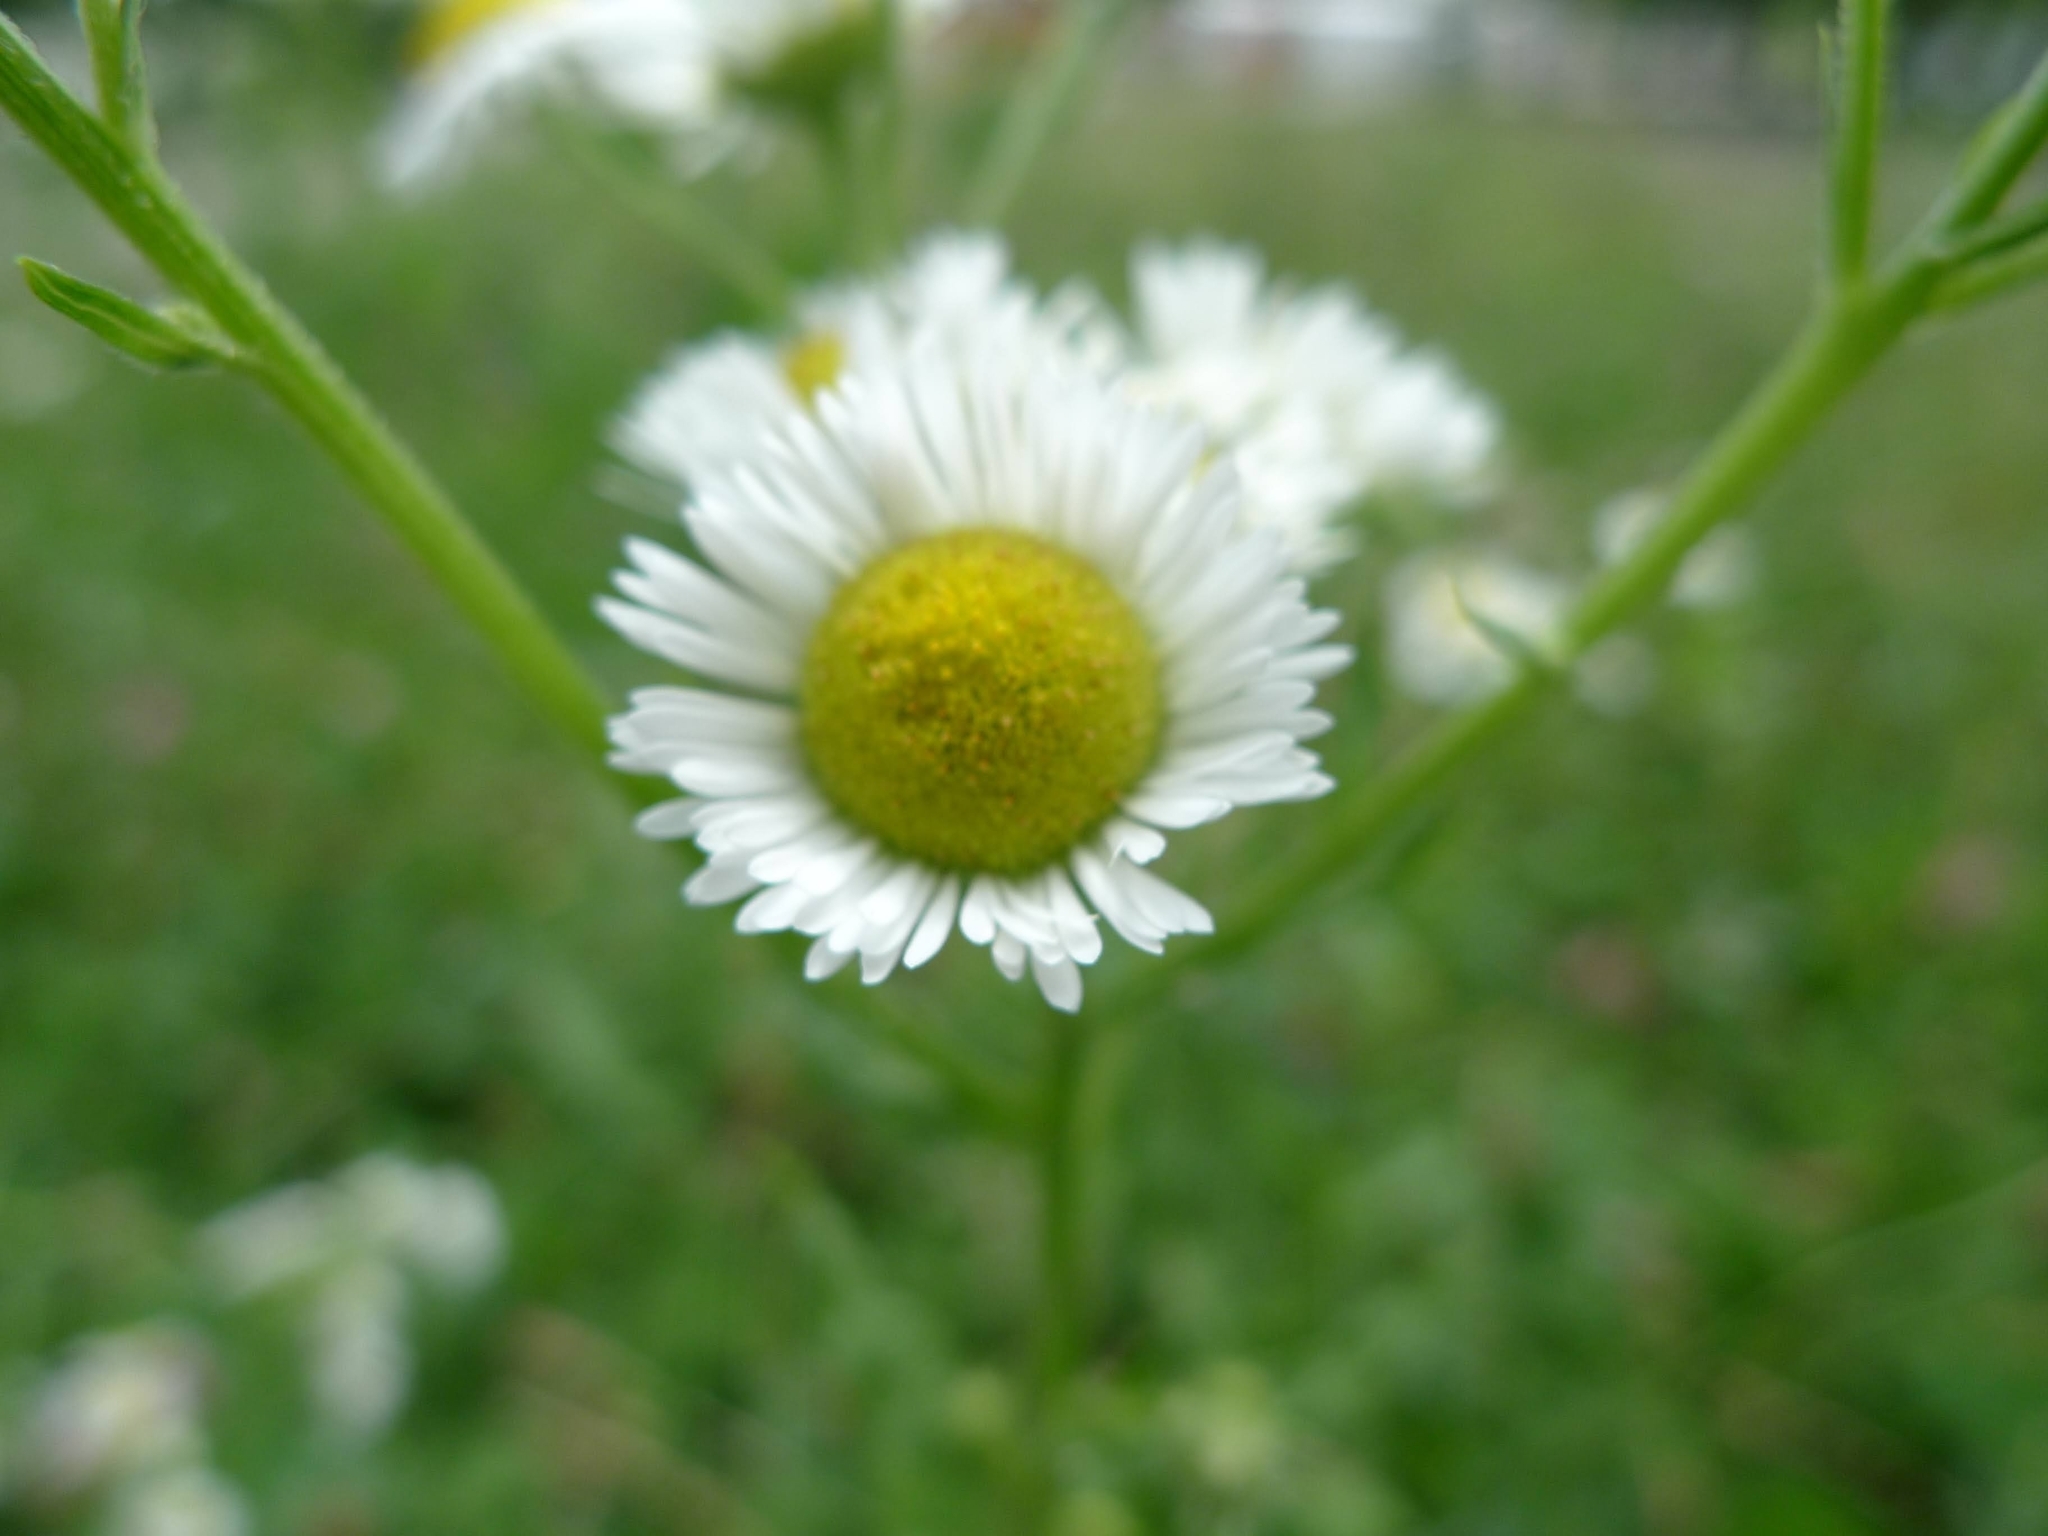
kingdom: Plantae
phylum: Tracheophyta
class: Magnoliopsida
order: Asterales
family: Asteraceae
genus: Erigeron
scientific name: Erigeron annuus
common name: Tall fleabane
